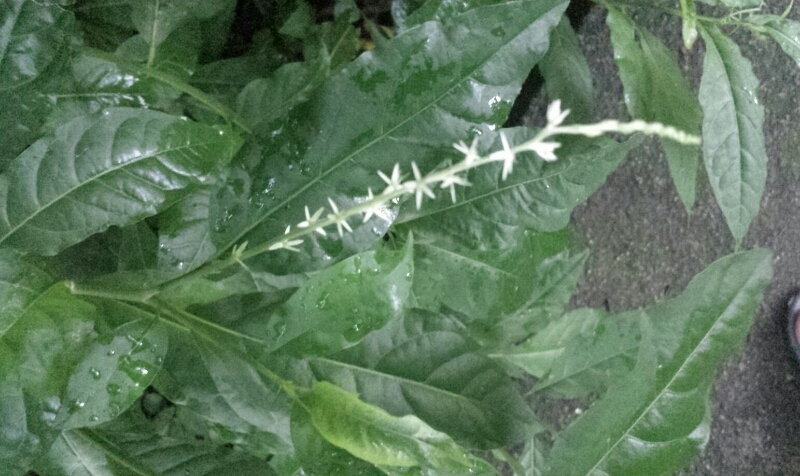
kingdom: Plantae
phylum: Tracheophyta
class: Magnoliopsida
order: Caryophyllales
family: Phytolaccaceae
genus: Petiveria
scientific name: Petiveria alliacea
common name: Garlicweed
